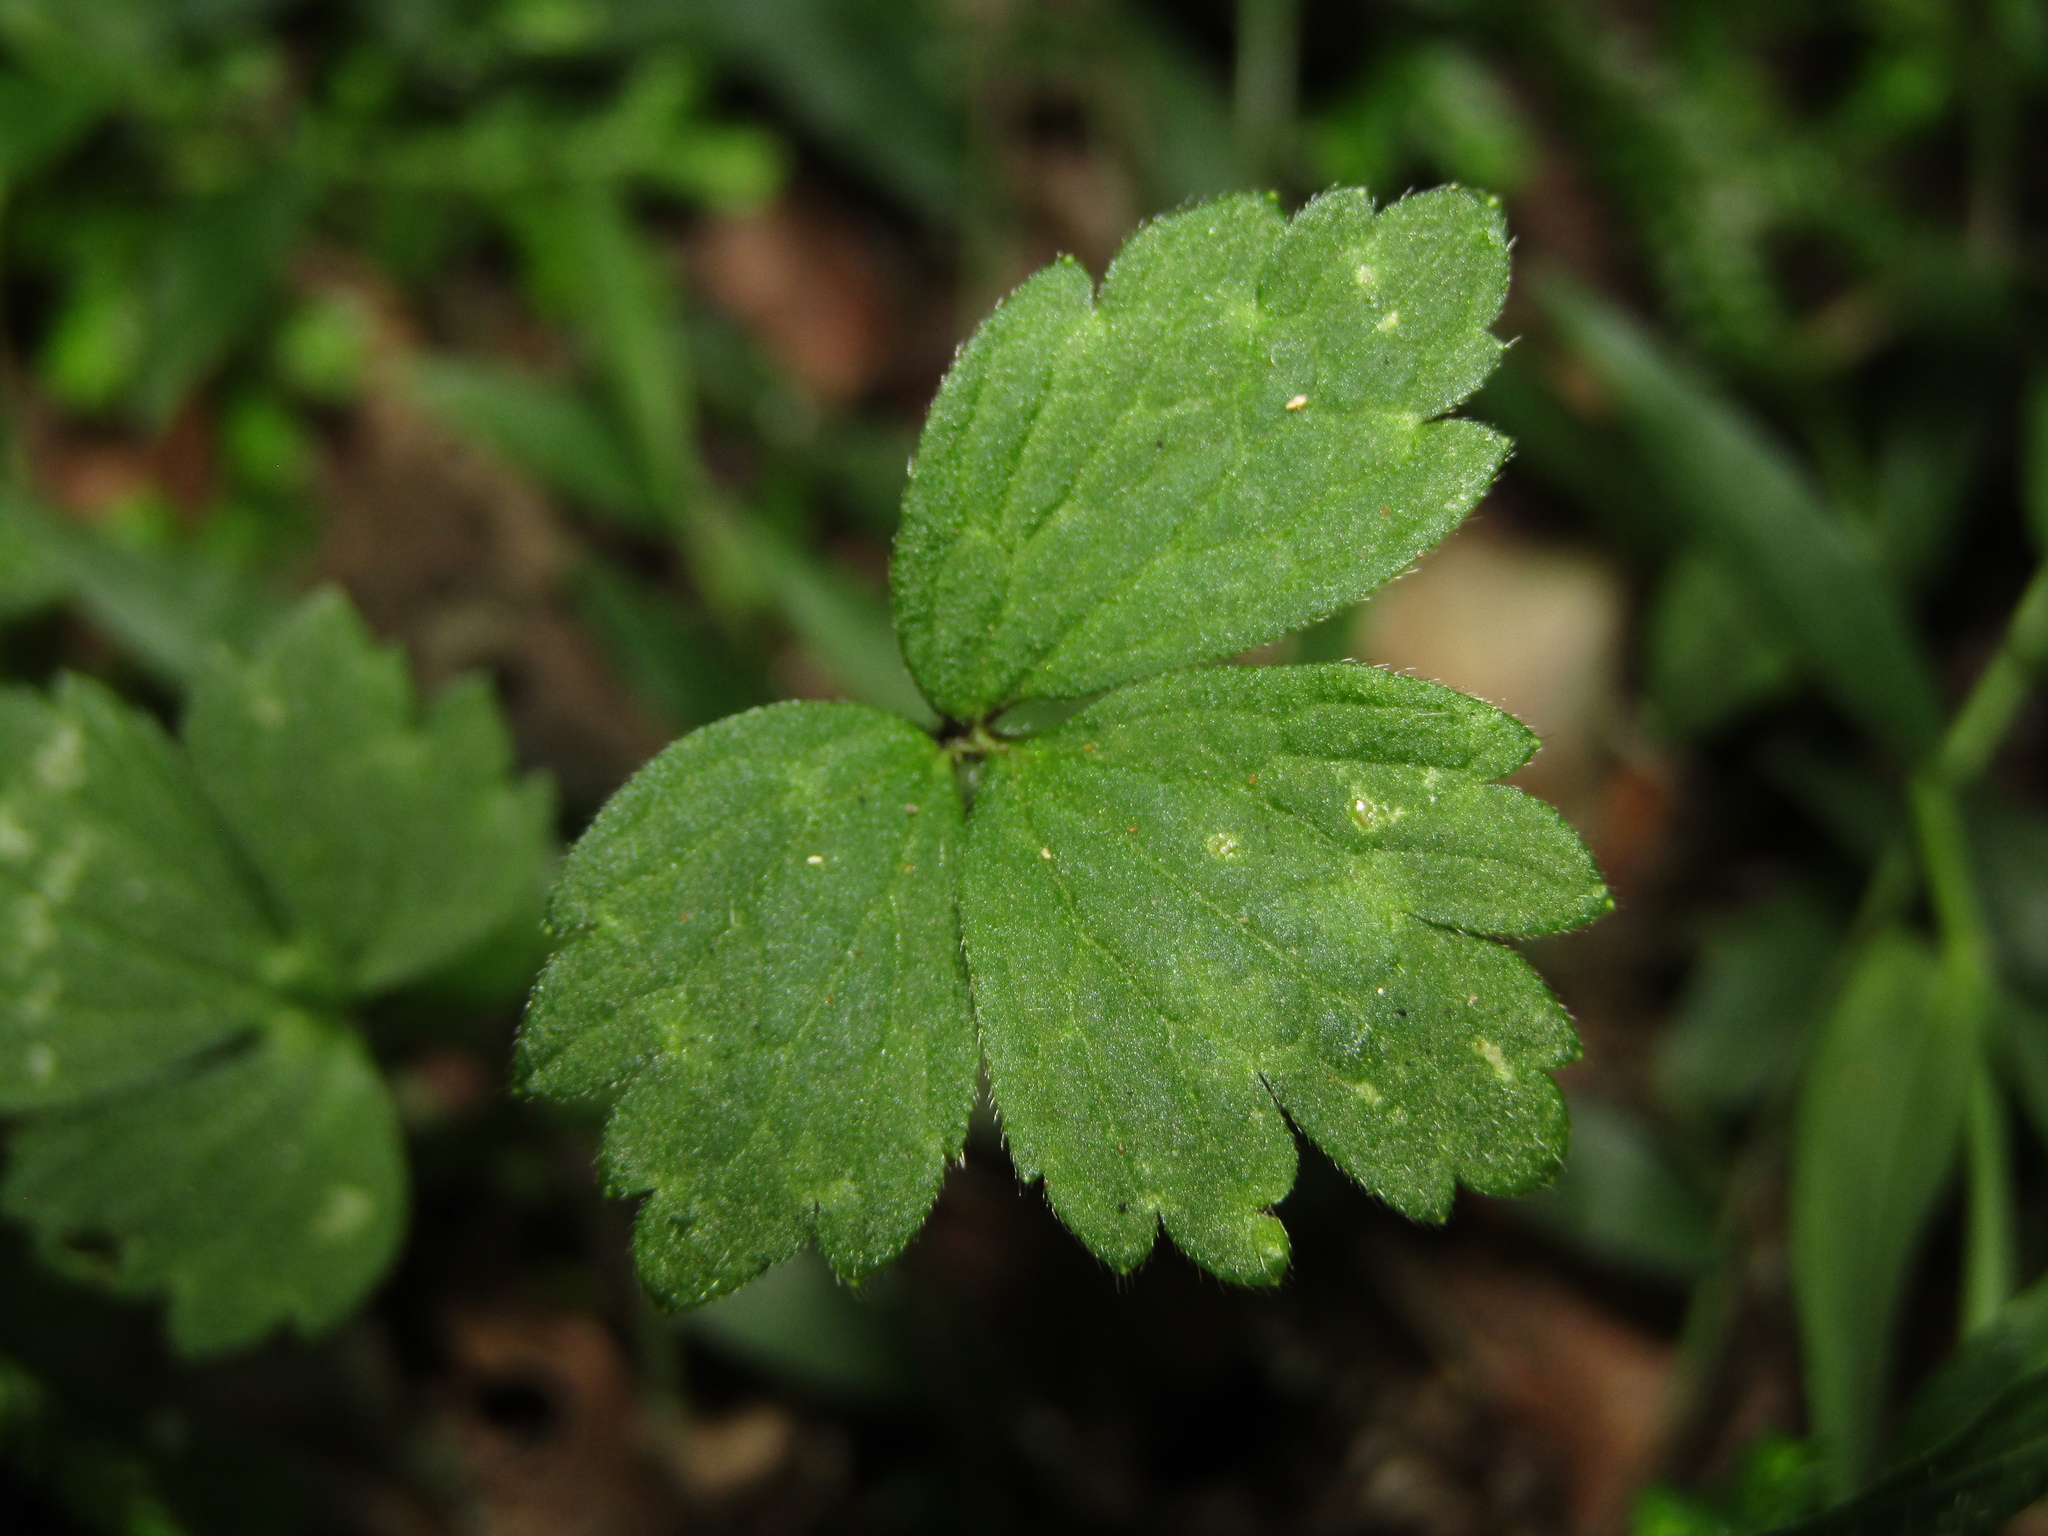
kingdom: Plantae
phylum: Tracheophyta
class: Magnoliopsida
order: Ranunculales
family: Ranunculaceae
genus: Ranunculus
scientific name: Ranunculus repens
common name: Creeping buttercup
